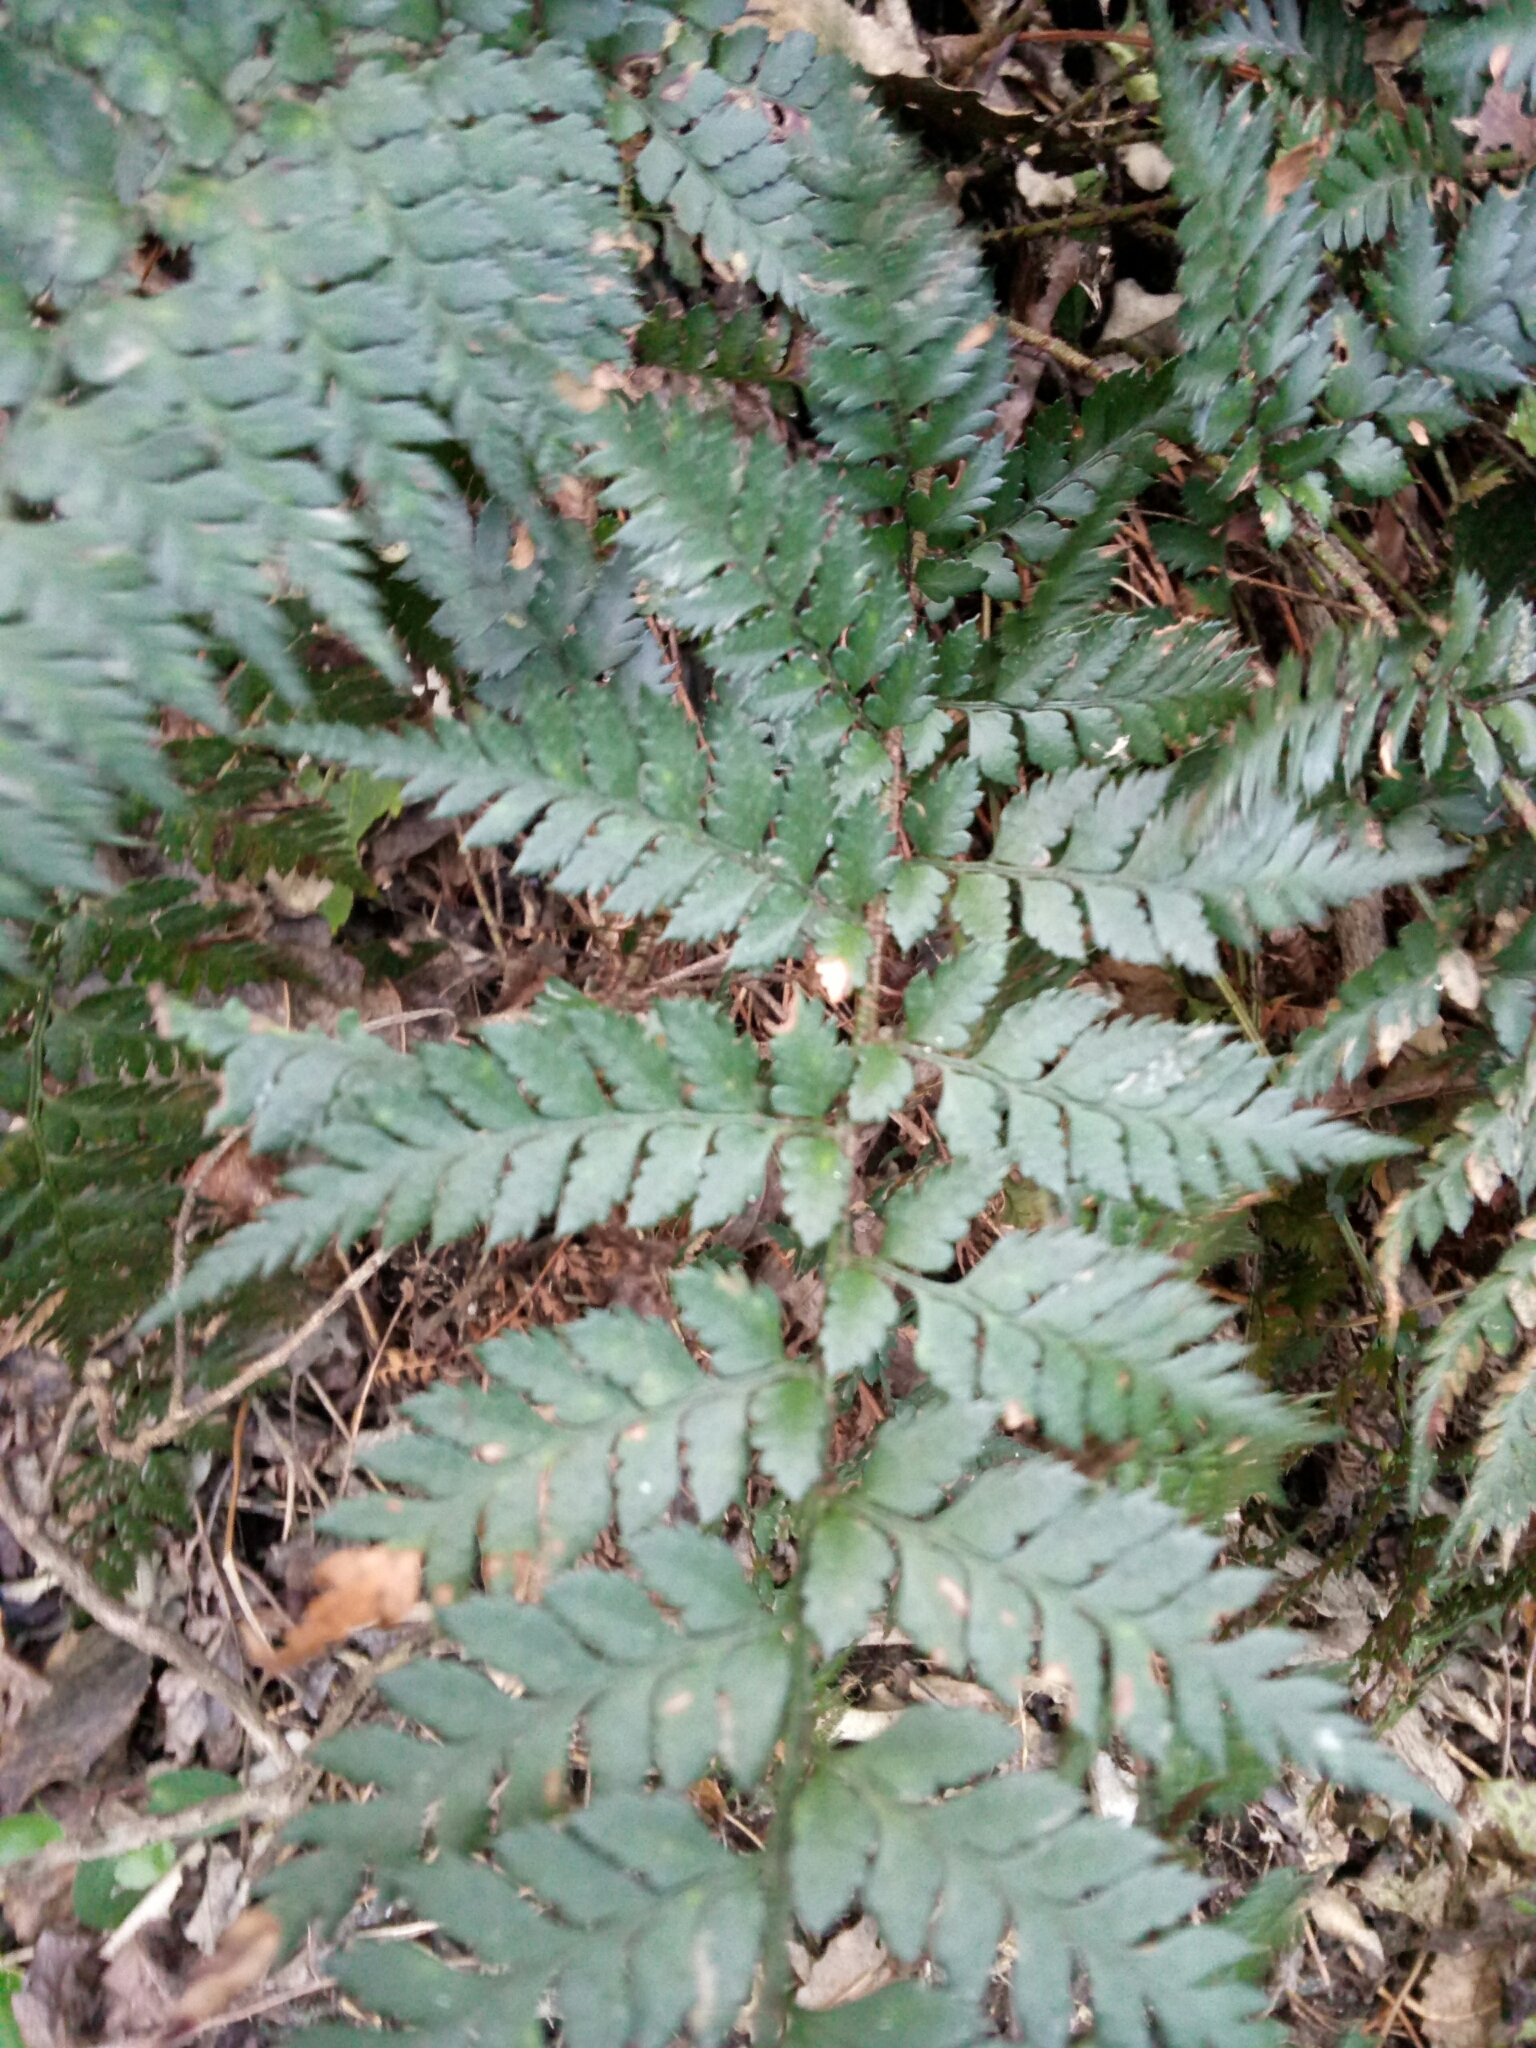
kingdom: Plantae
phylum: Tracheophyta
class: Polypodiopsida
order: Polypodiales
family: Dryopteridaceae
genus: Polystichum
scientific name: Polystichum oculatum
